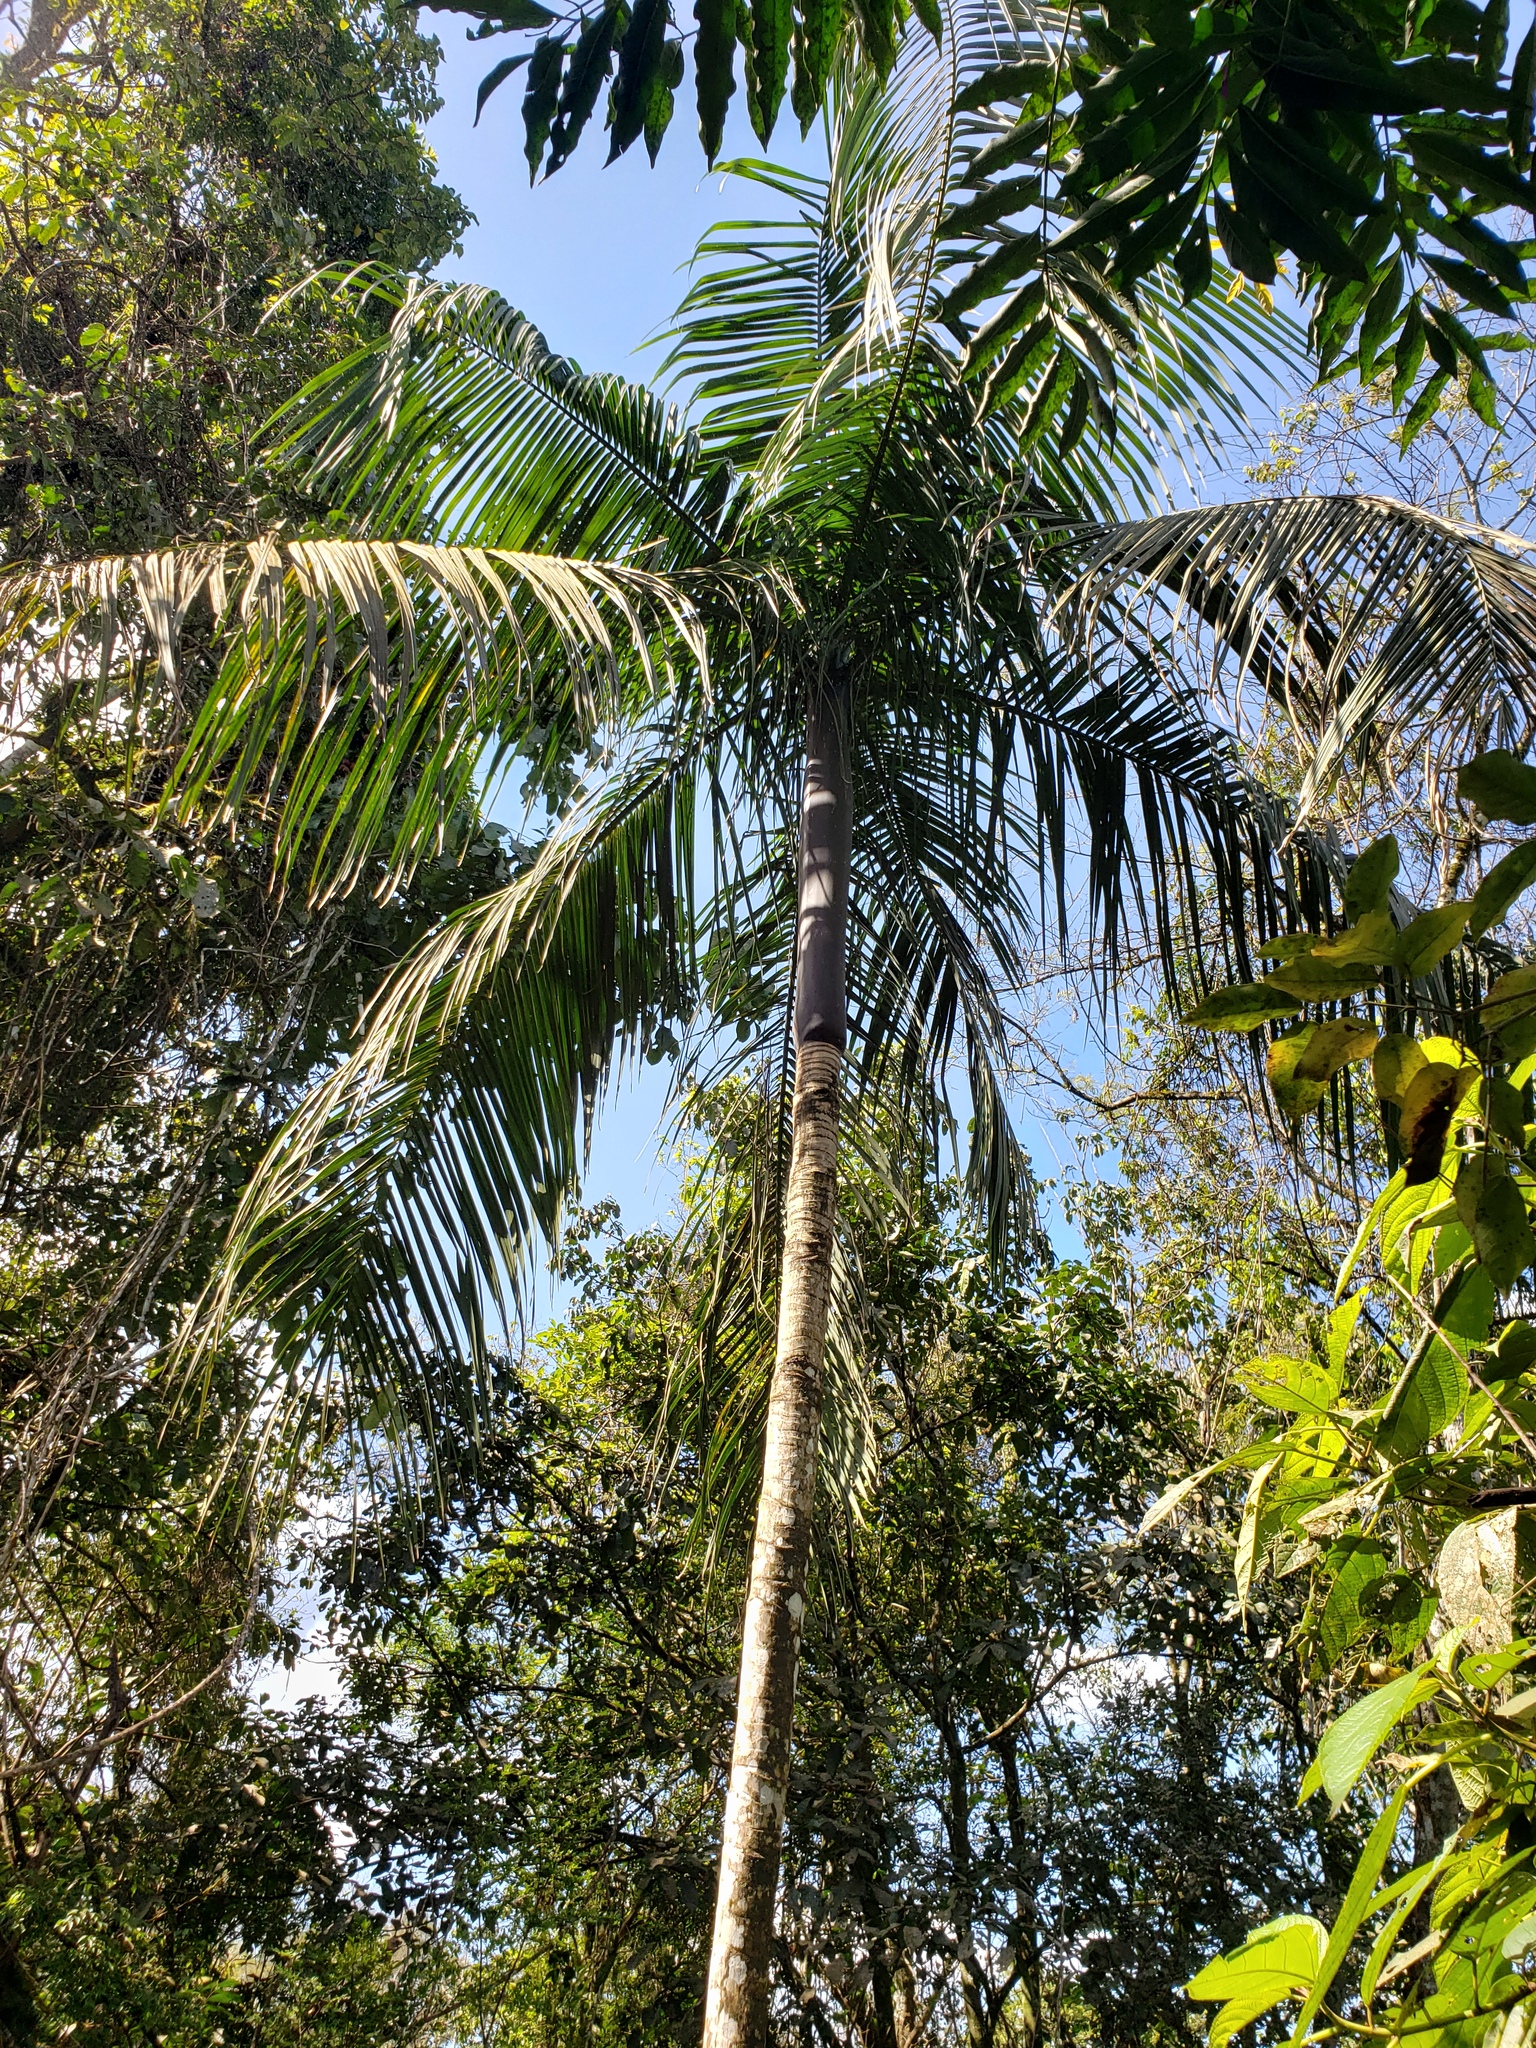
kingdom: Plantae
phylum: Tracheophyta
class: Liliopsida
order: Arecales
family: Arecaceae
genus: Euterpe
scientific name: Euterpe edulis
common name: Assai palm
